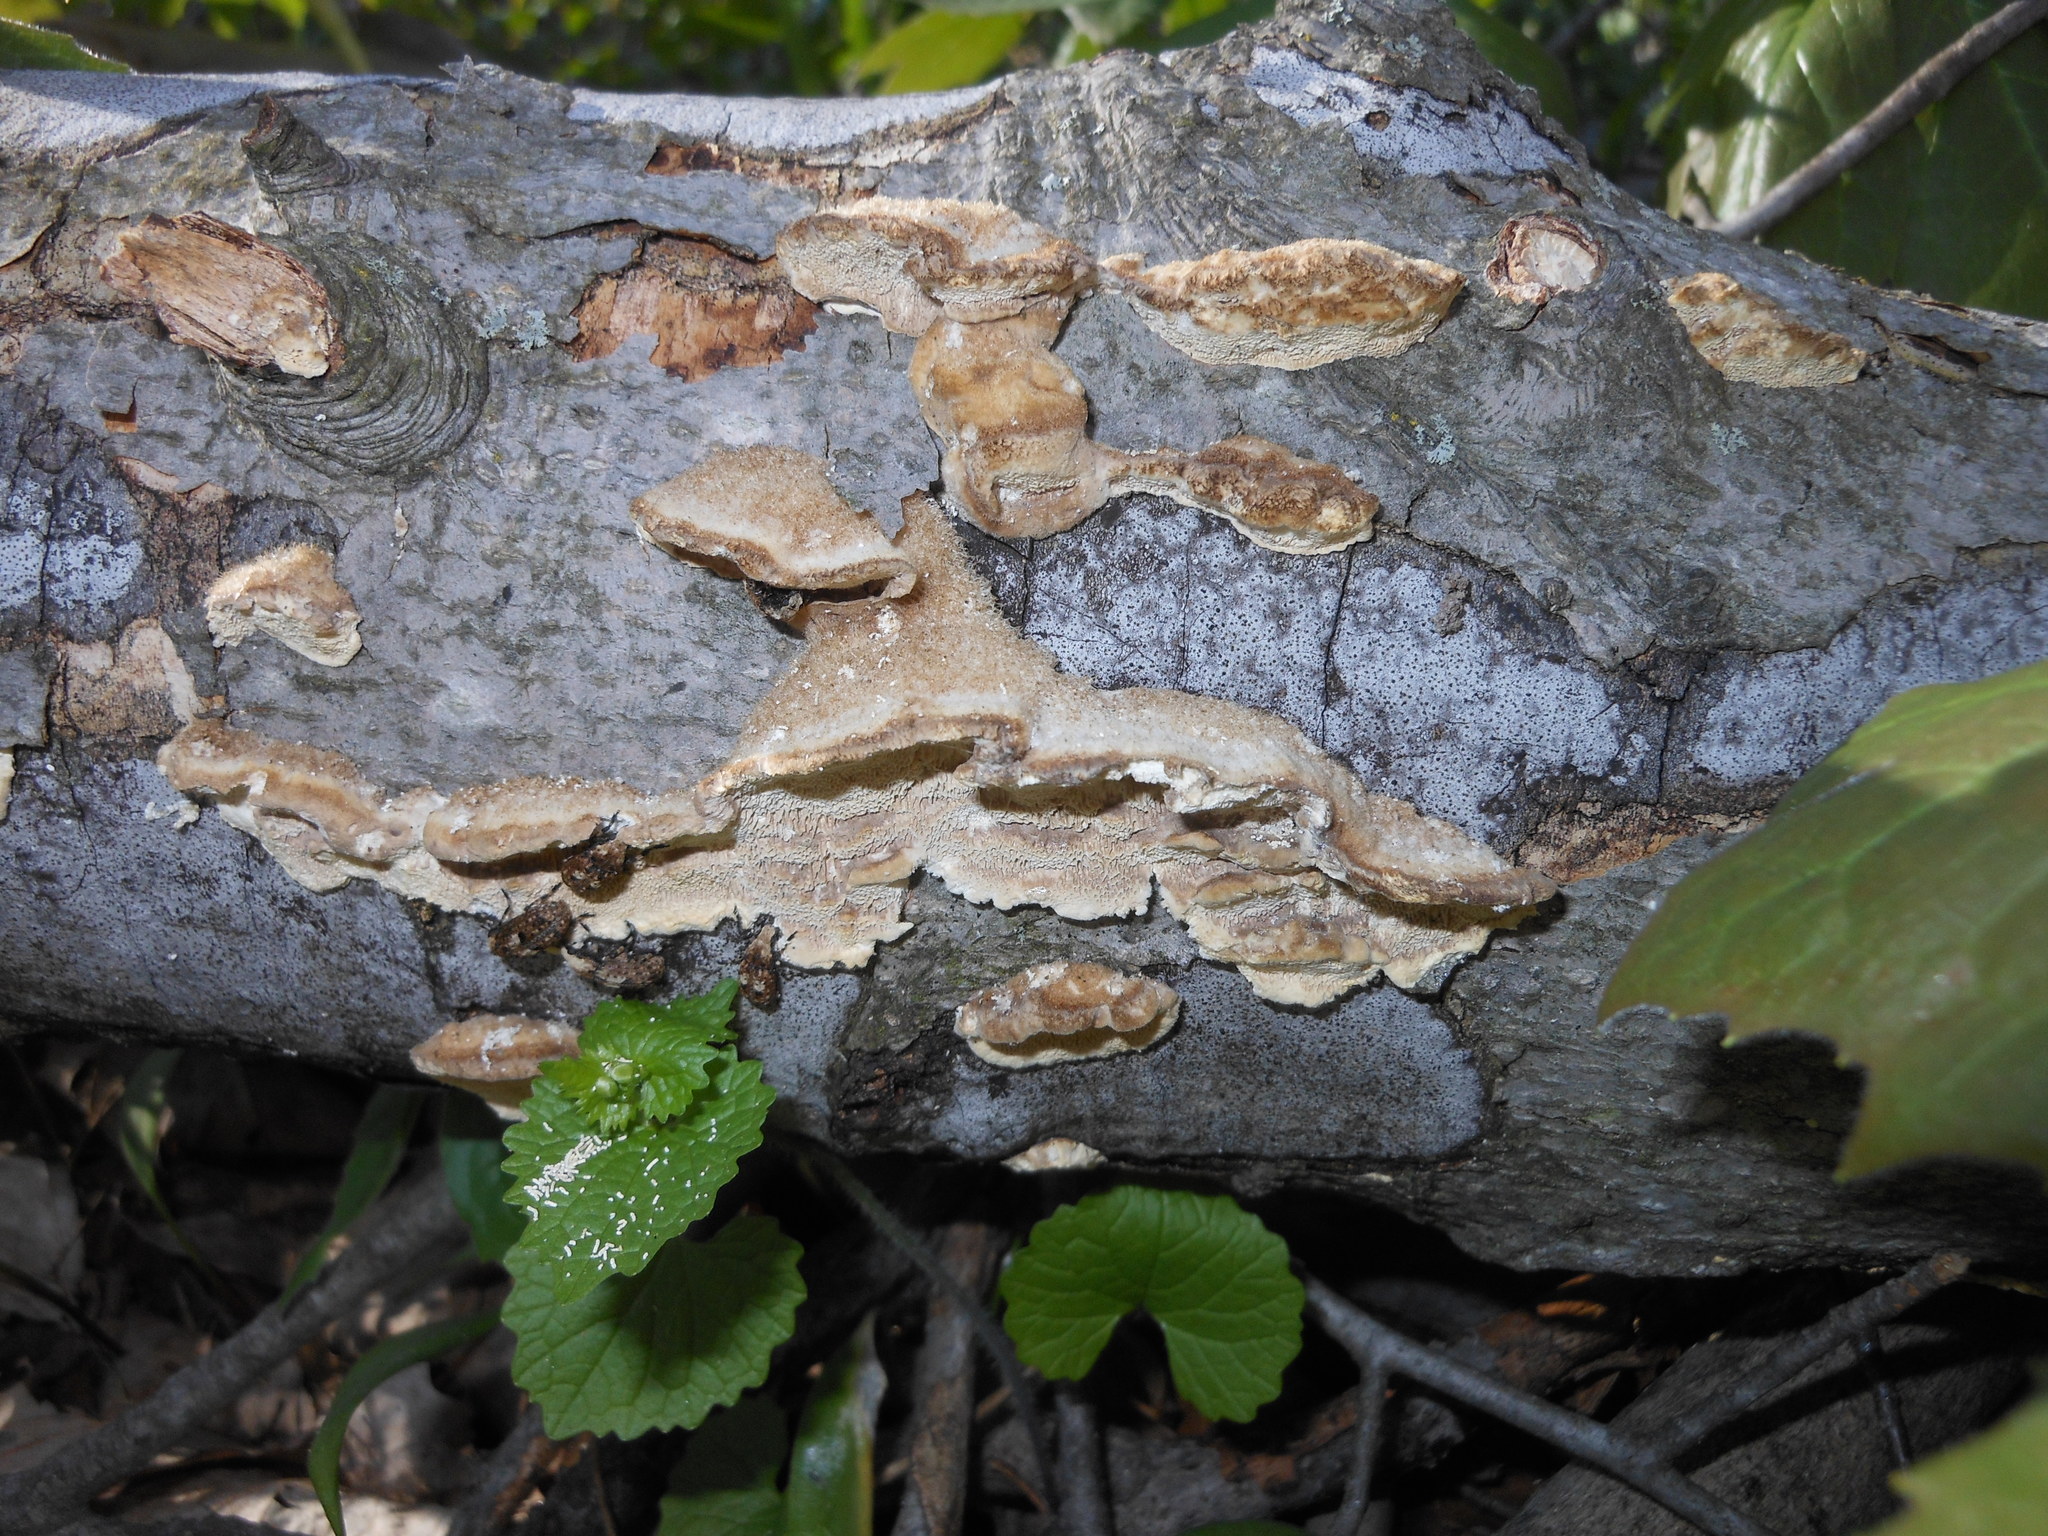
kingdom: Fungi
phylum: Basidiomycota
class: Agaricomycetes
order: Polyporales
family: Polyporaceae
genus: Trametes
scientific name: Trametes pubescens
